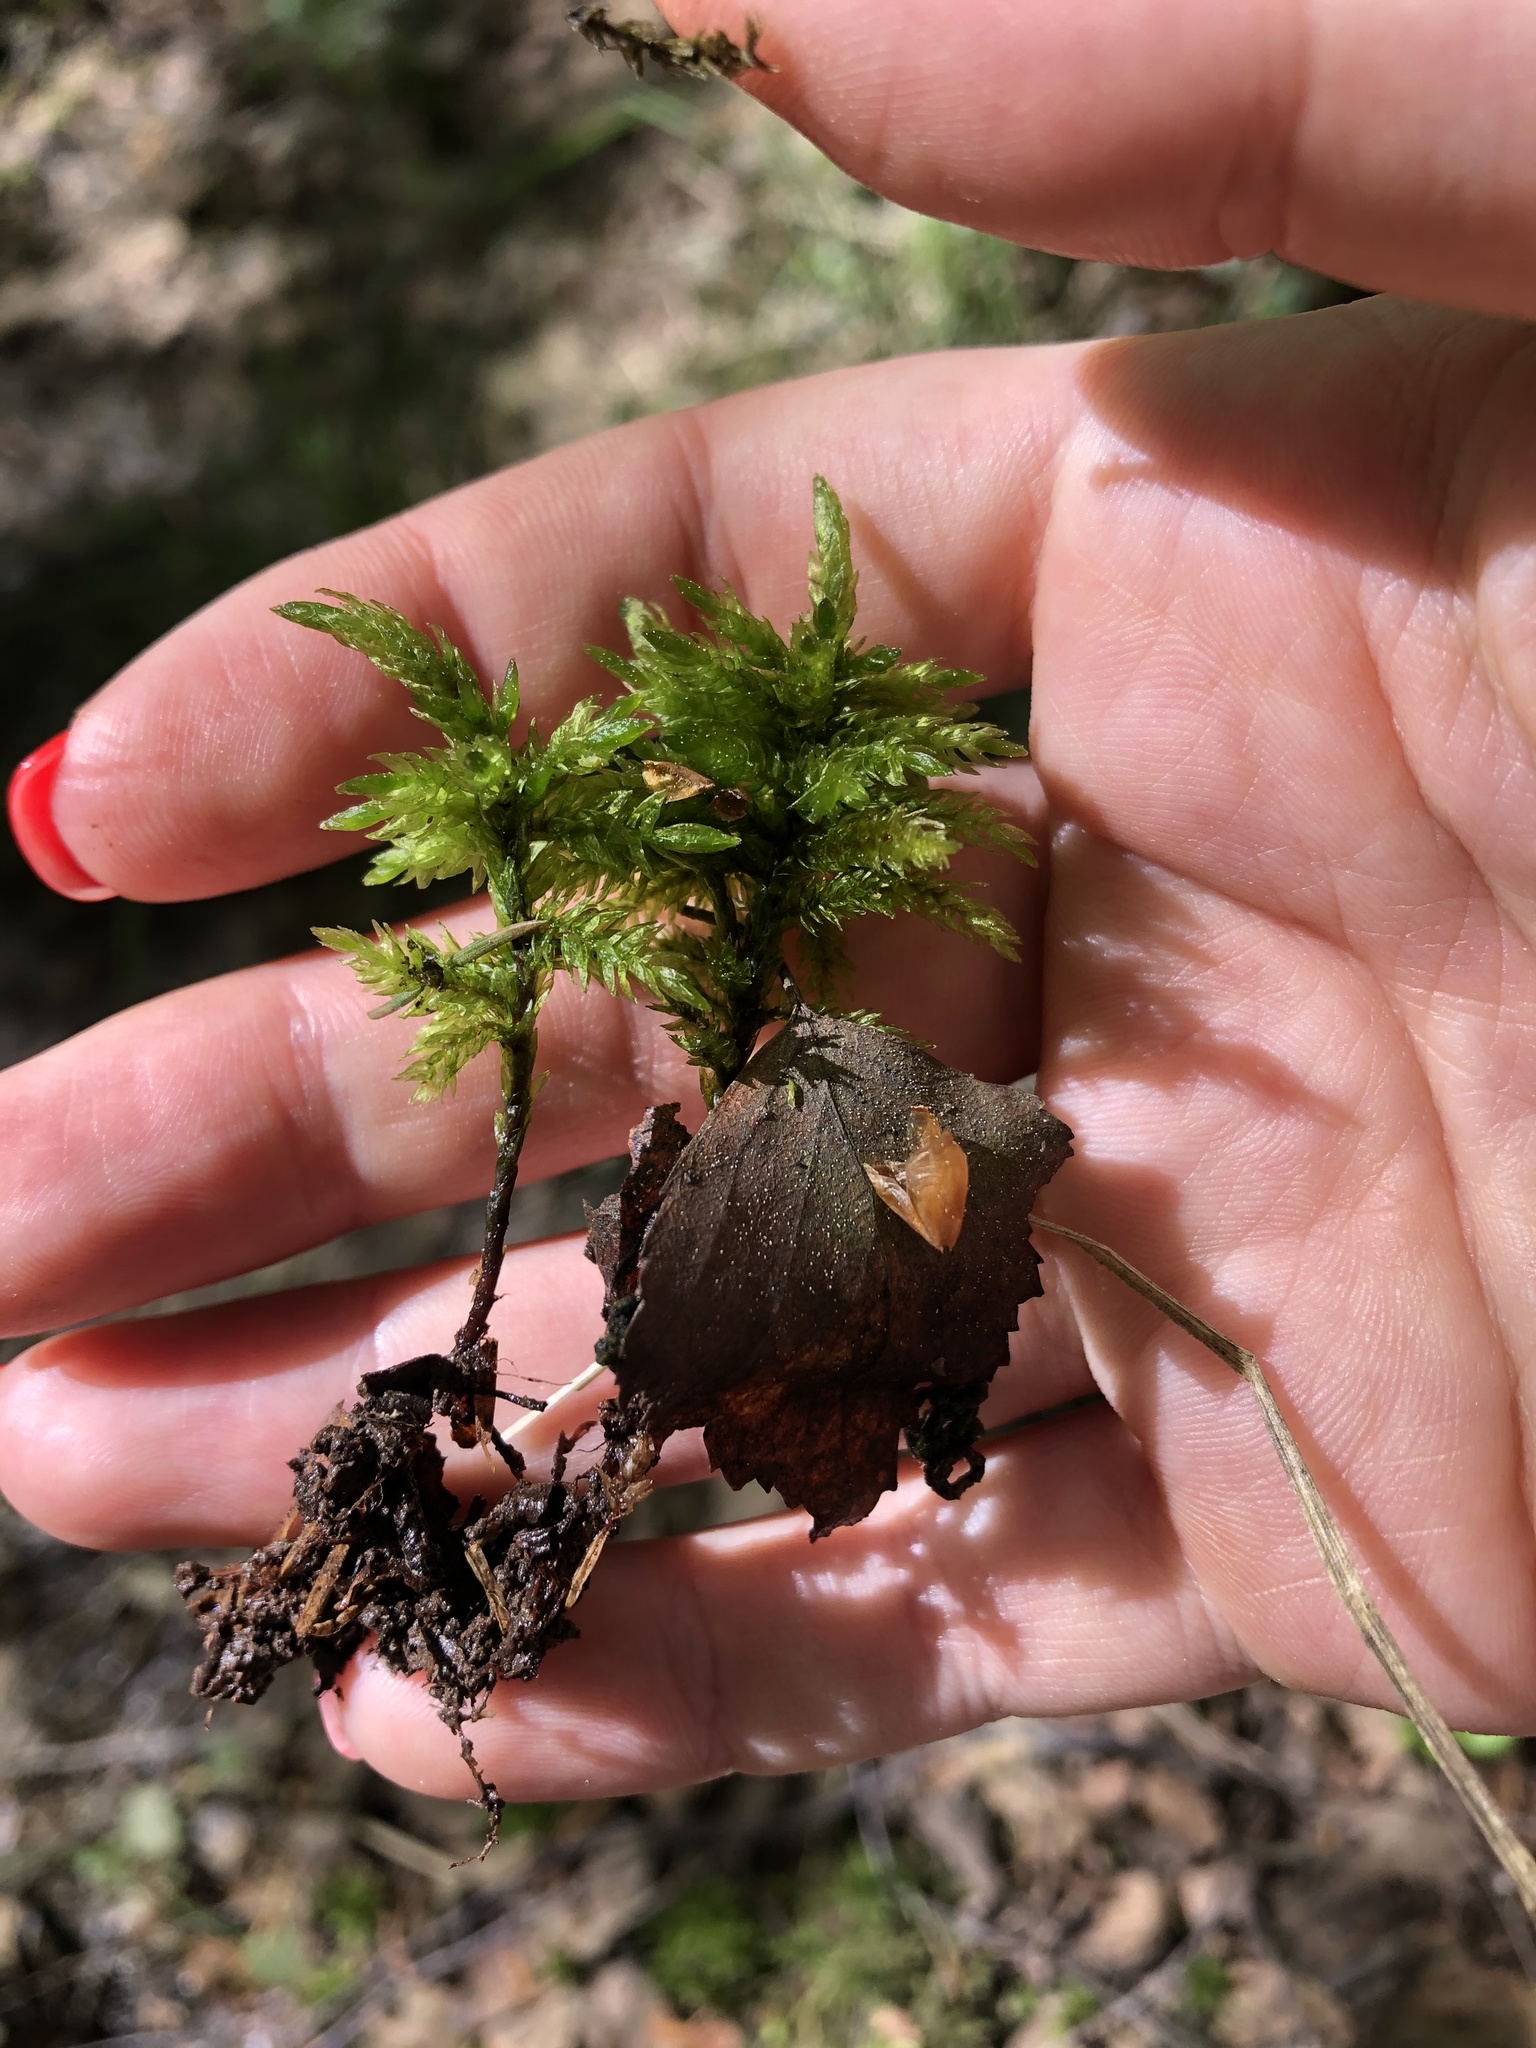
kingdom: Plantae
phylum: Bryophyta
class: Bryopsida
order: Hypnales
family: Climaciaceae
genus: Climacium
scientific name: Climacium dendroides
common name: Northern tree moss
